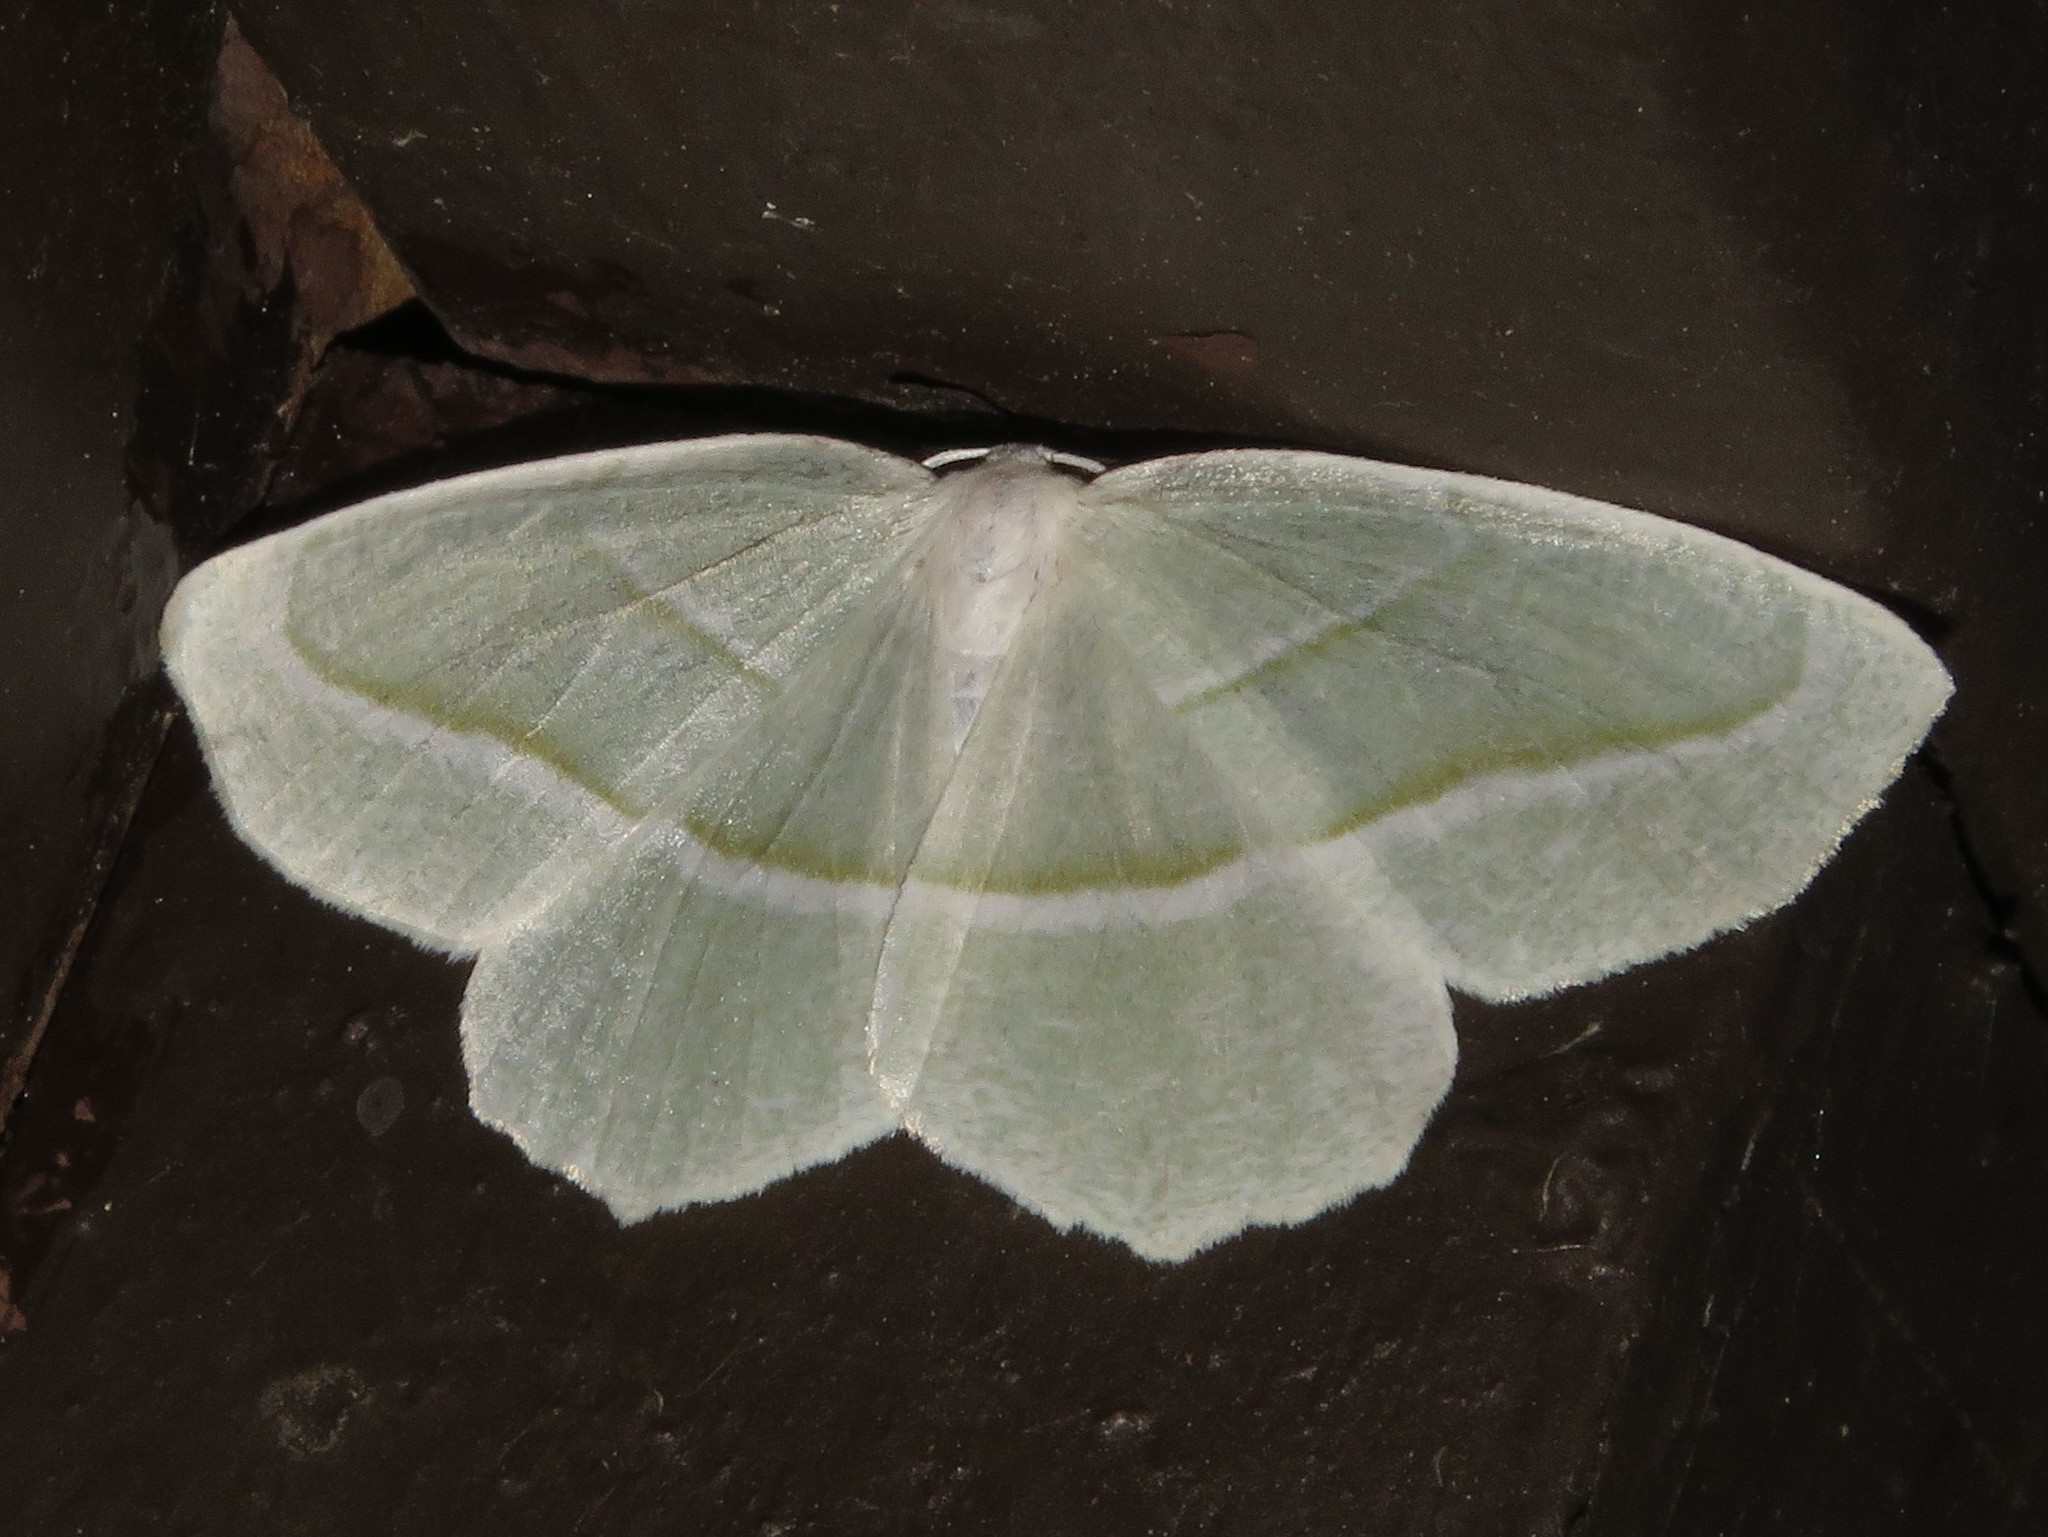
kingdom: Animalia
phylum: Arthropoda
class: Insecta
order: Lepidoptera
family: Geometridae
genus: Campaea
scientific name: Campaea perlata
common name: Fringed looper
